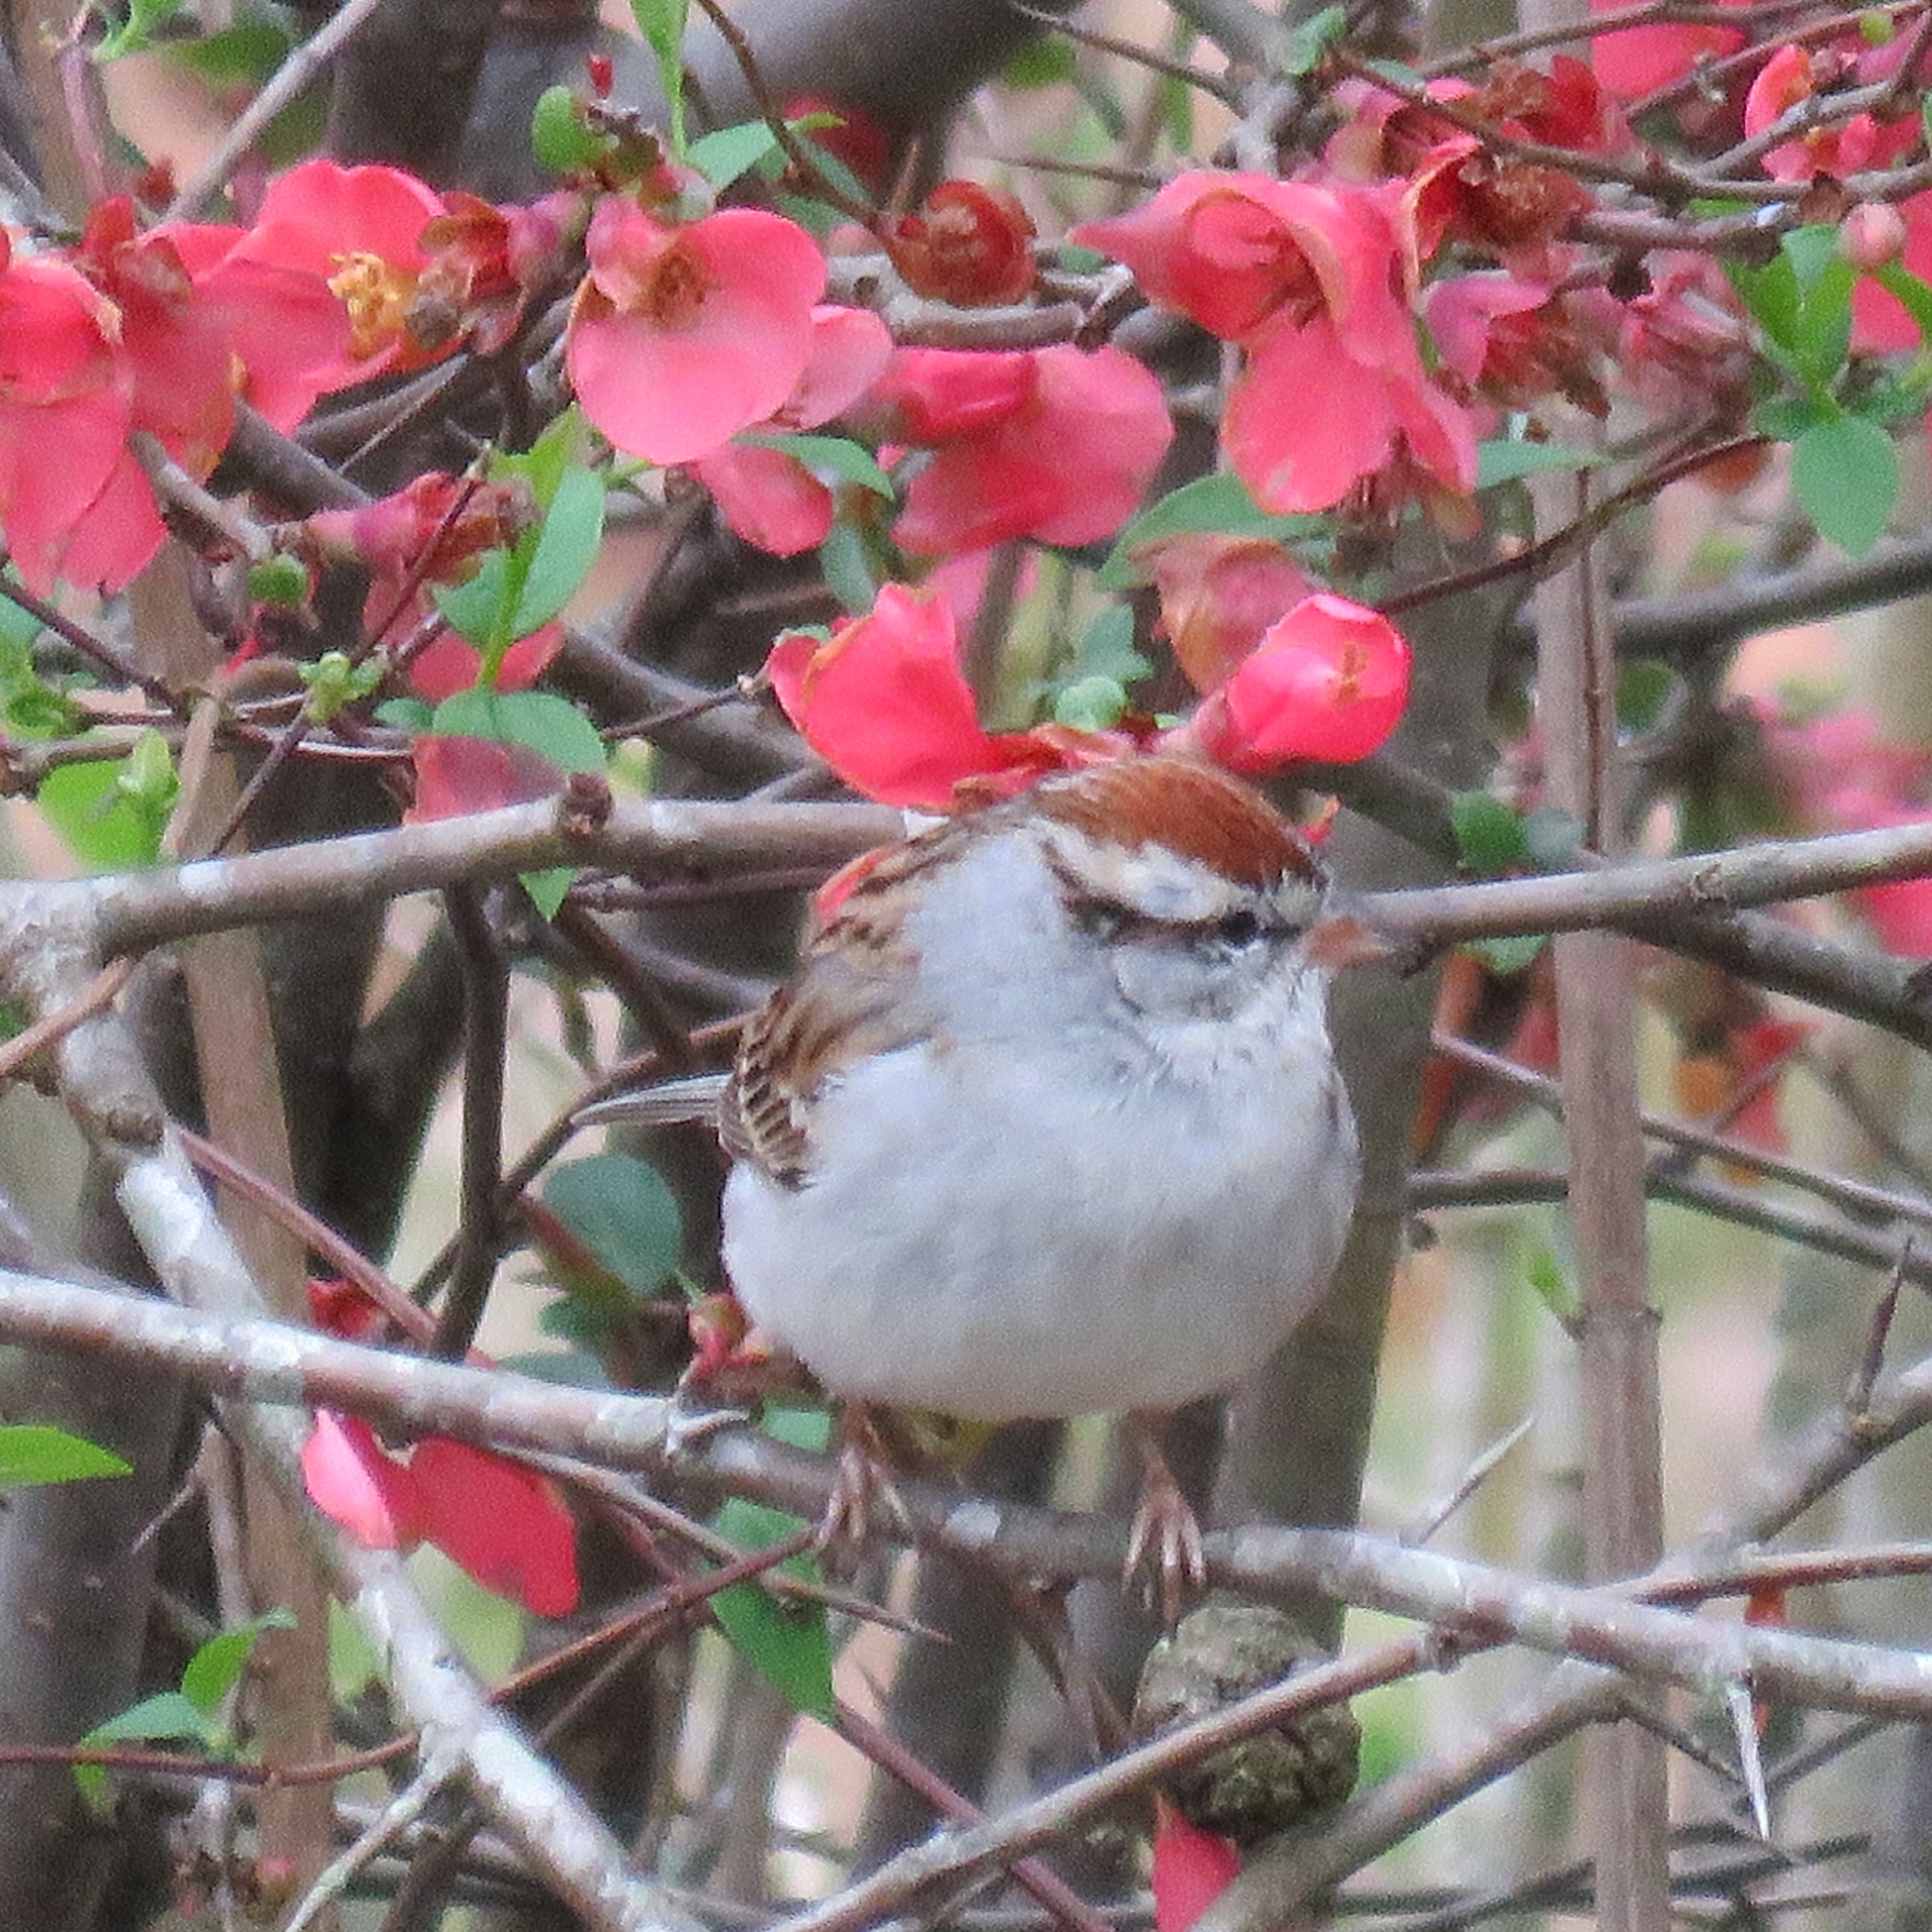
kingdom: Animalia
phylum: Chordata
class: Aves
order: Passeriformes
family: Passerellidae
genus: Spizella
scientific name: Spizella passerina
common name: Chipping sparrow
